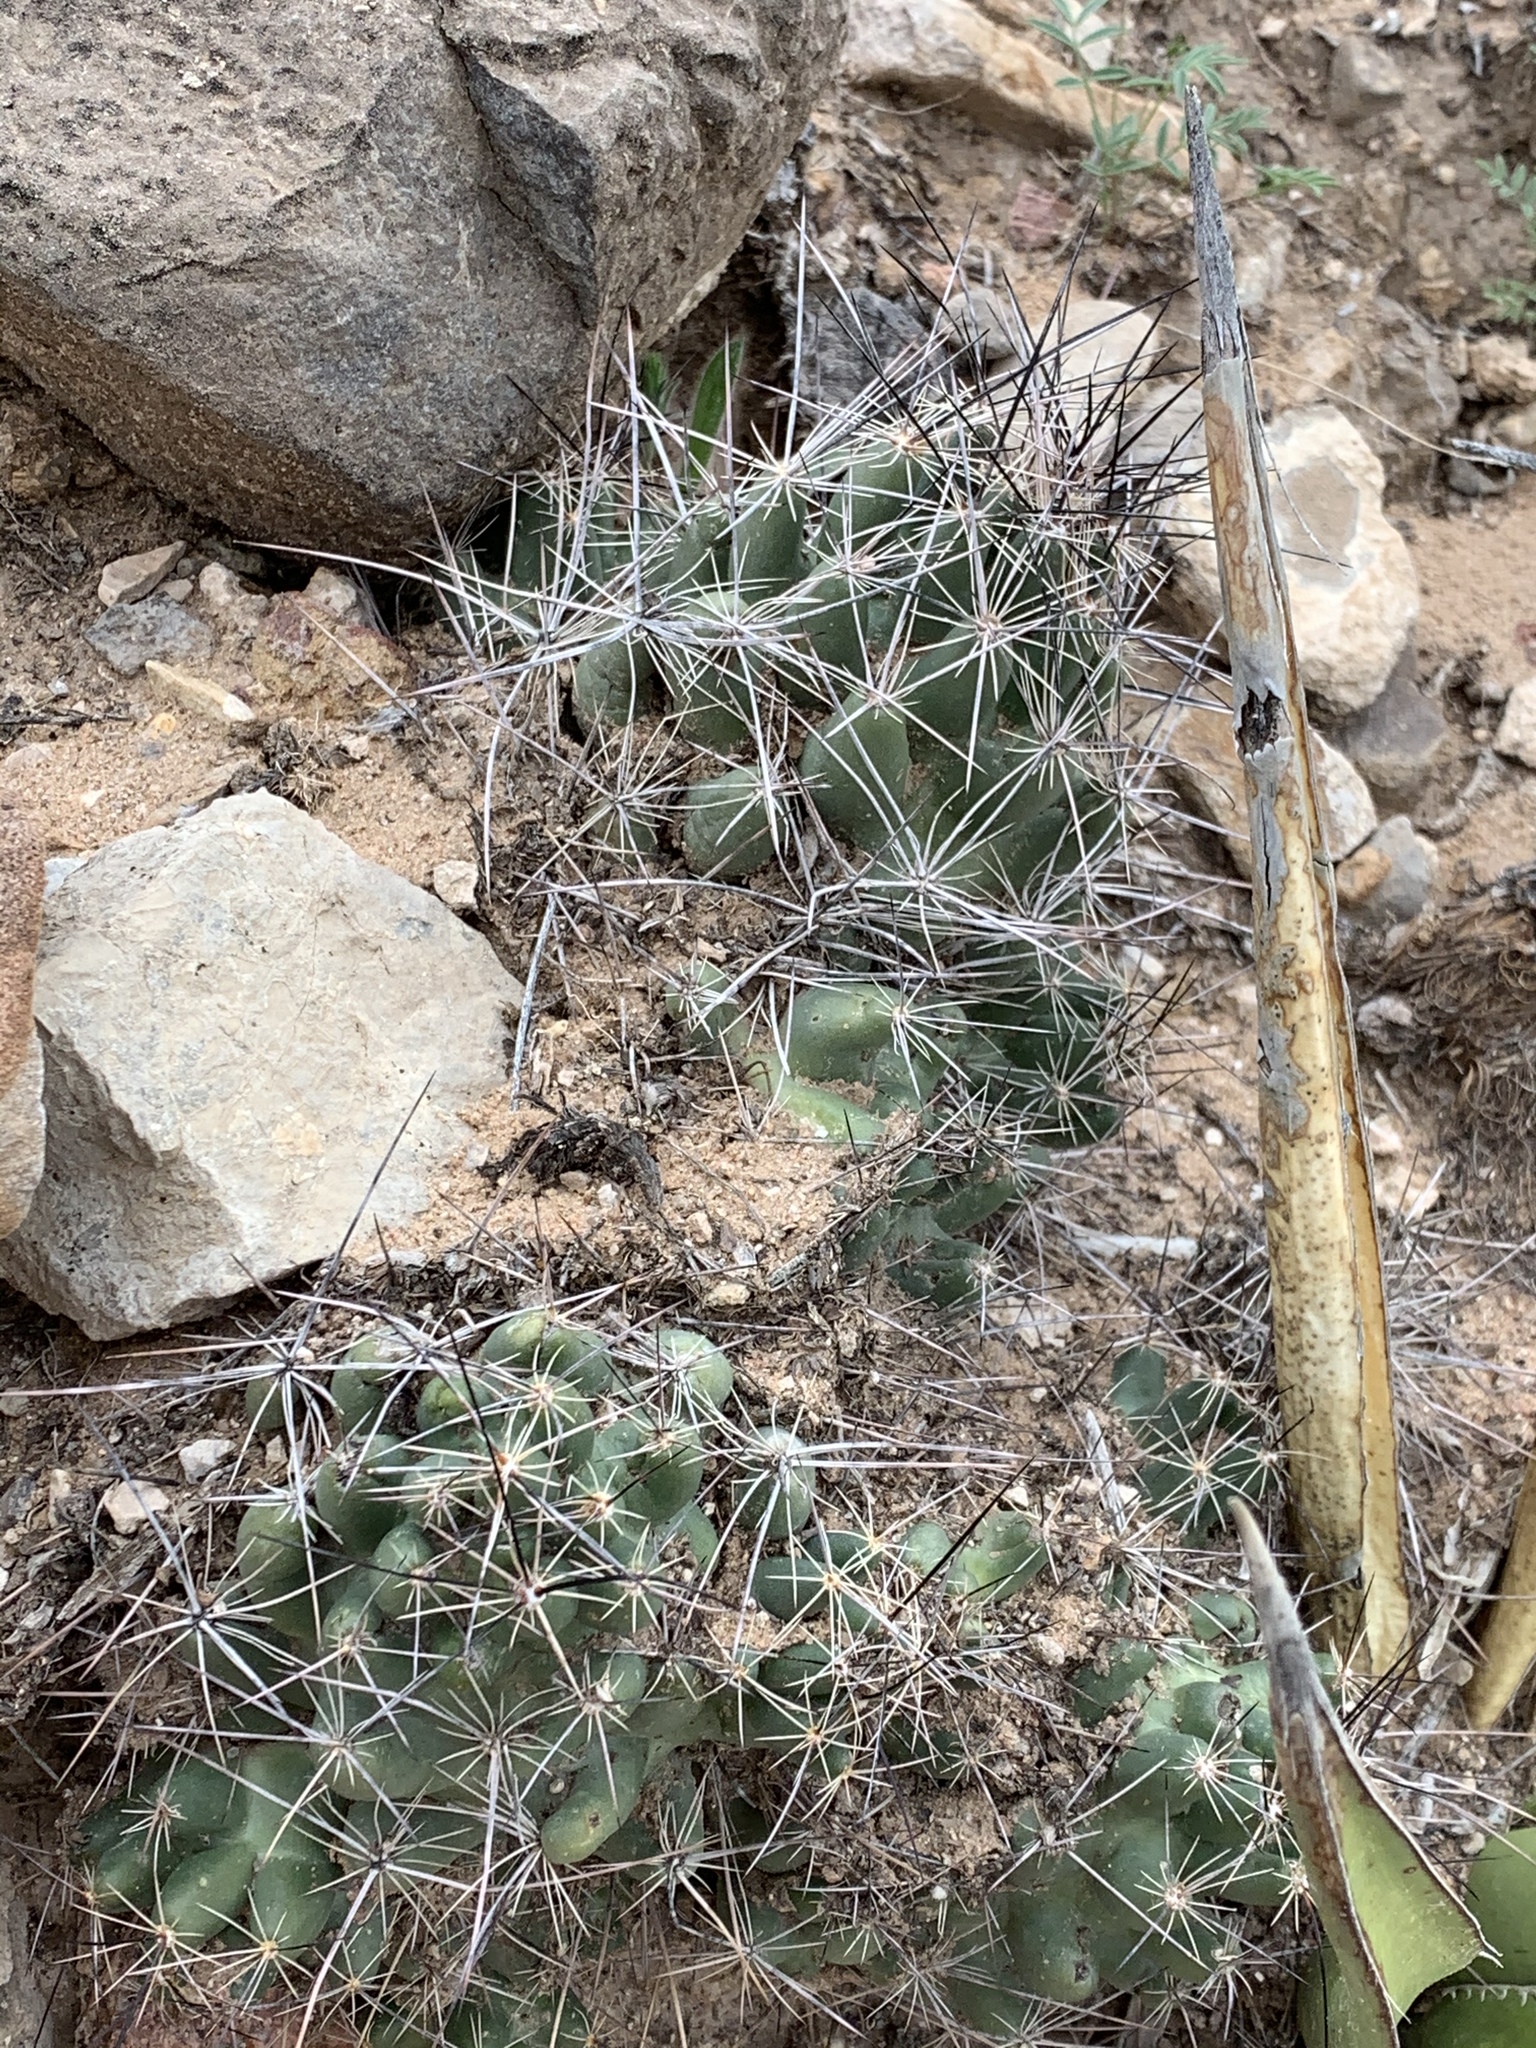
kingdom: Plantae
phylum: Tracheophyta
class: Magnoliopsida
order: Caryophyllales
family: Cactaceae
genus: Coryphantha
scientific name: Coryphantha macromeris
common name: Nipple beehive cactus
